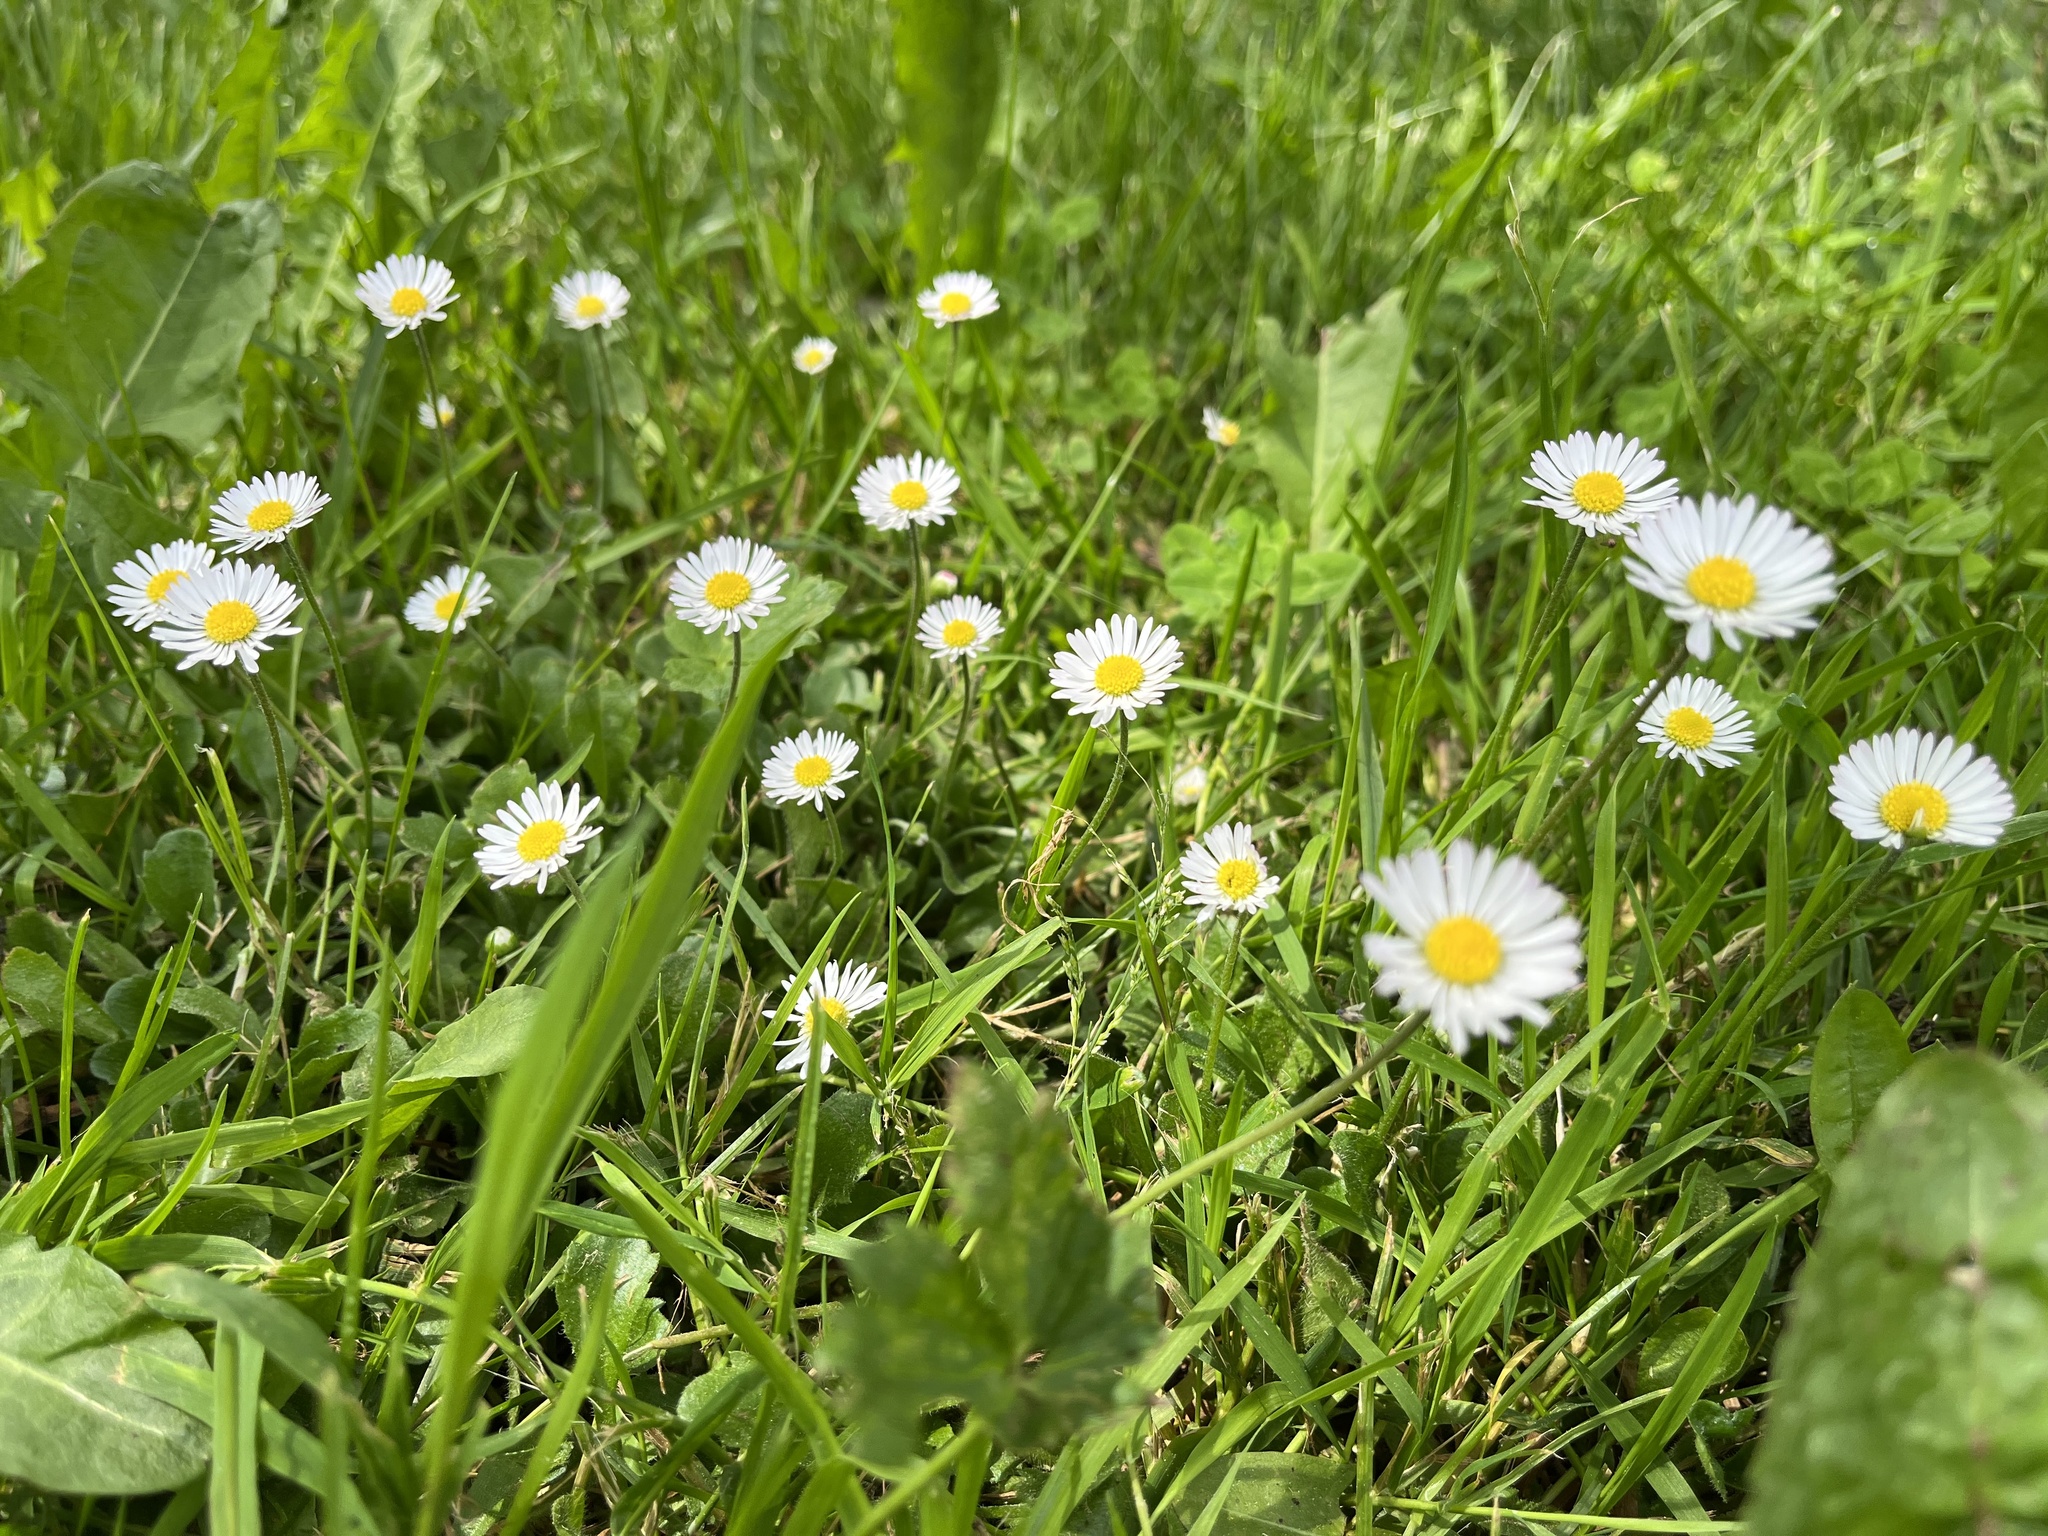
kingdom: Plantae
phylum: Tracheophyta
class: Magnoliopsida
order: Asterales
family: Asteraceae
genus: Bellis
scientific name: Bellis perennis
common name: Lawndaisy
